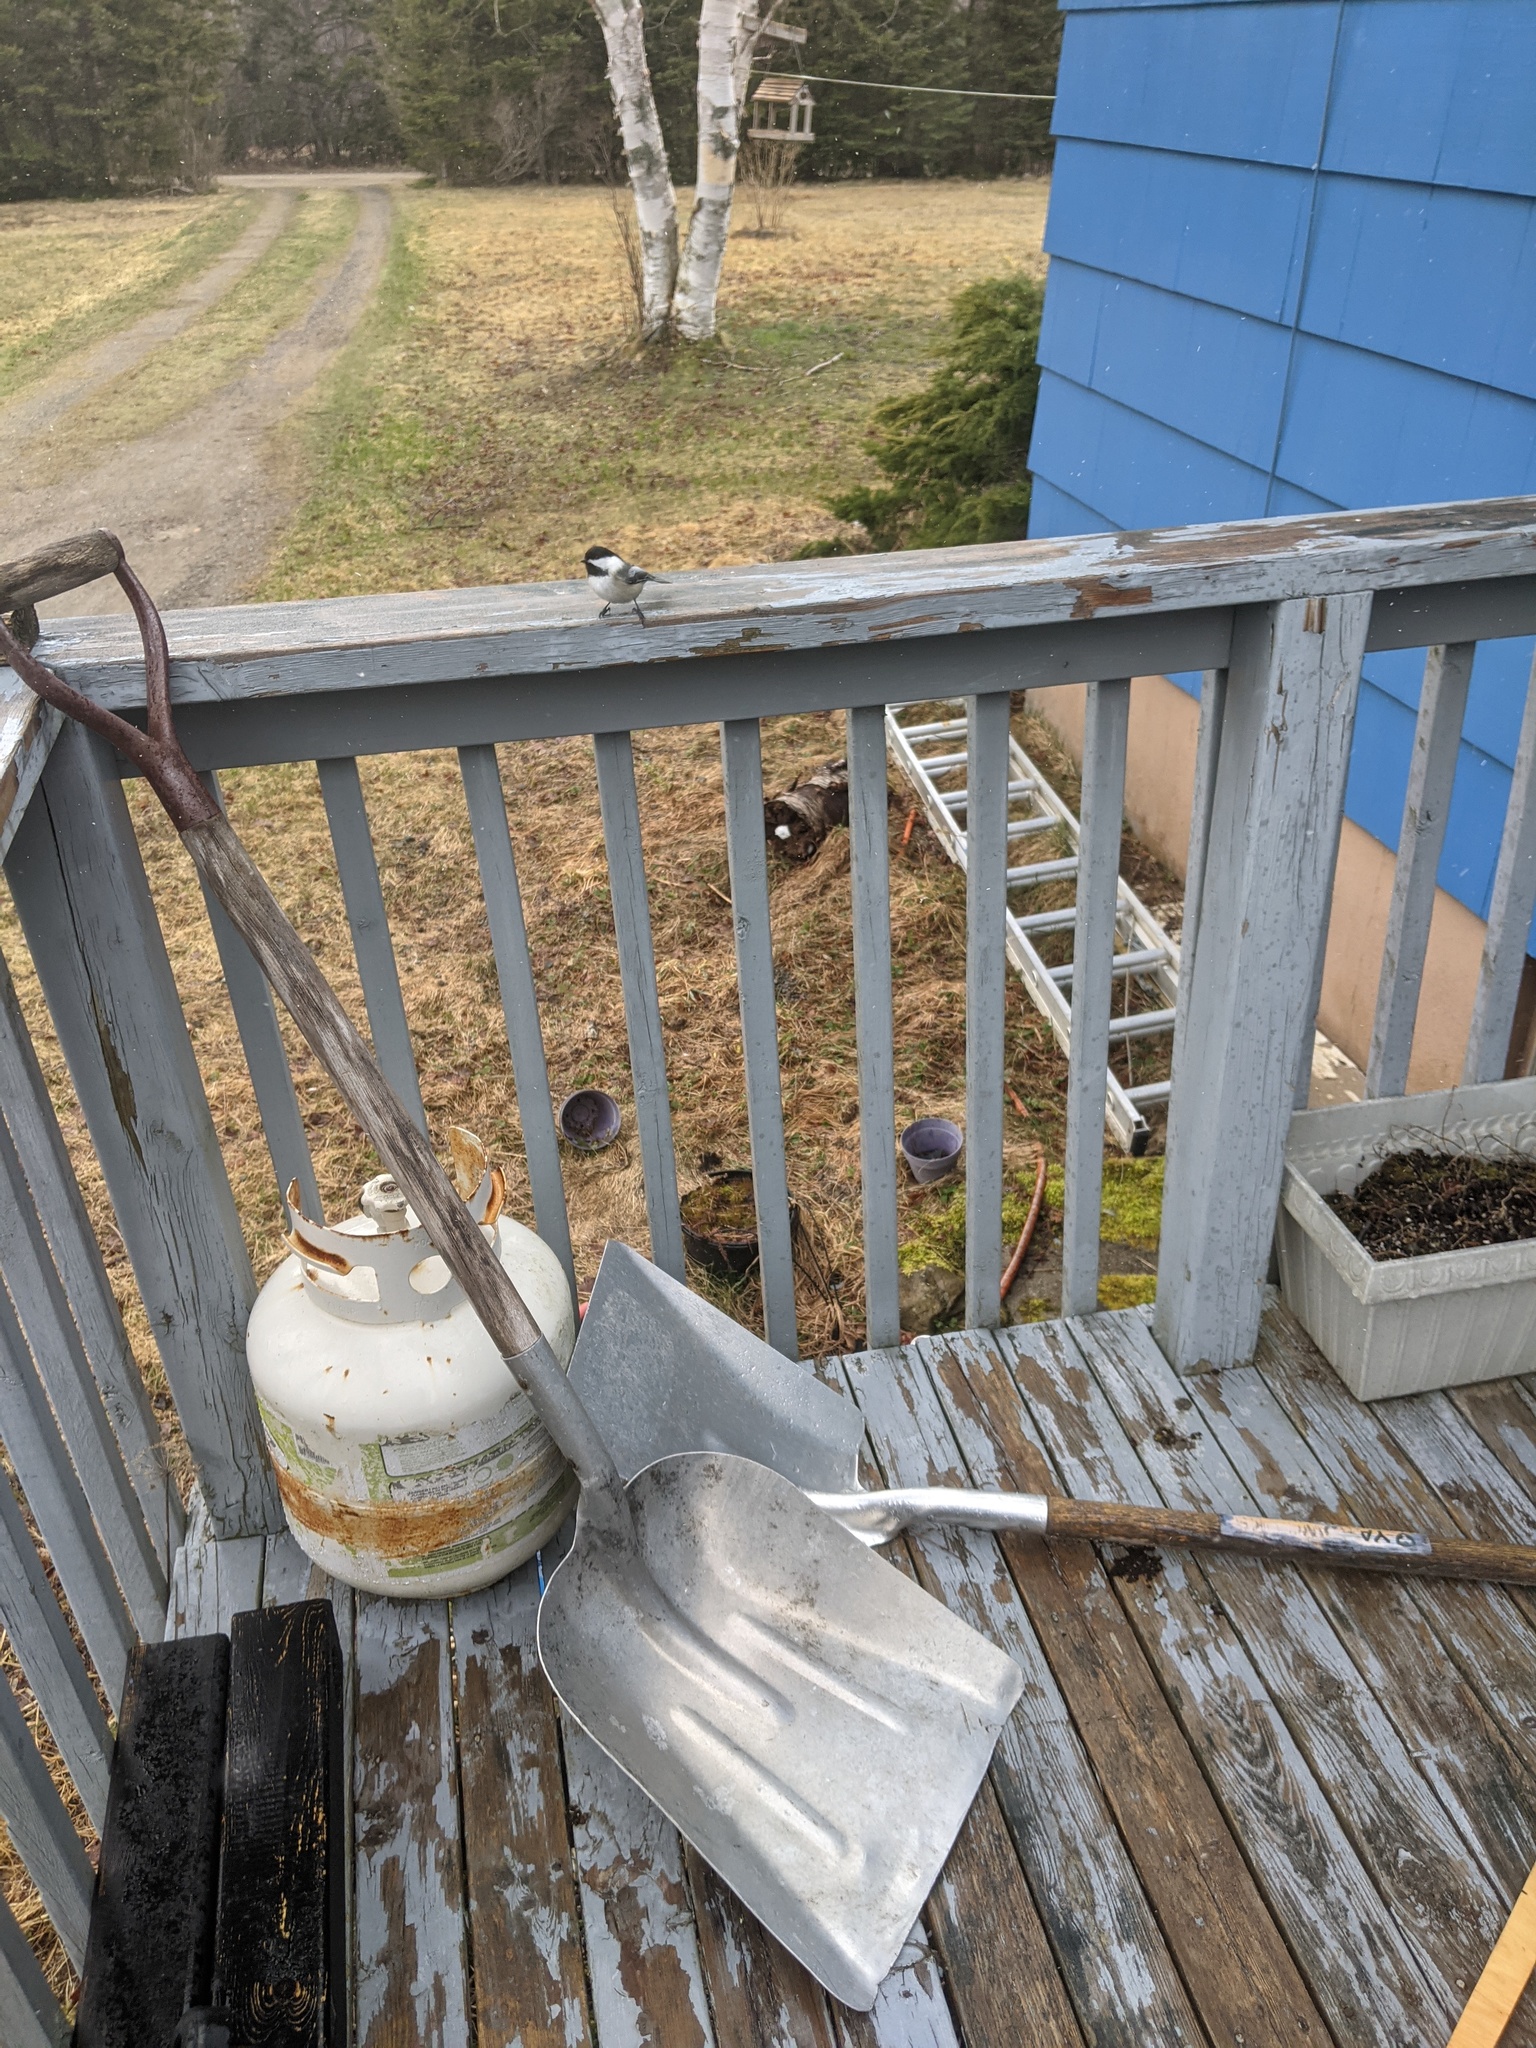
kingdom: Animalia
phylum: Chordata
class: Aves
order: Passeriformes
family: Paridae
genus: Poecile
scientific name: Poecile atricapillus
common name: Black-capped chickadee
